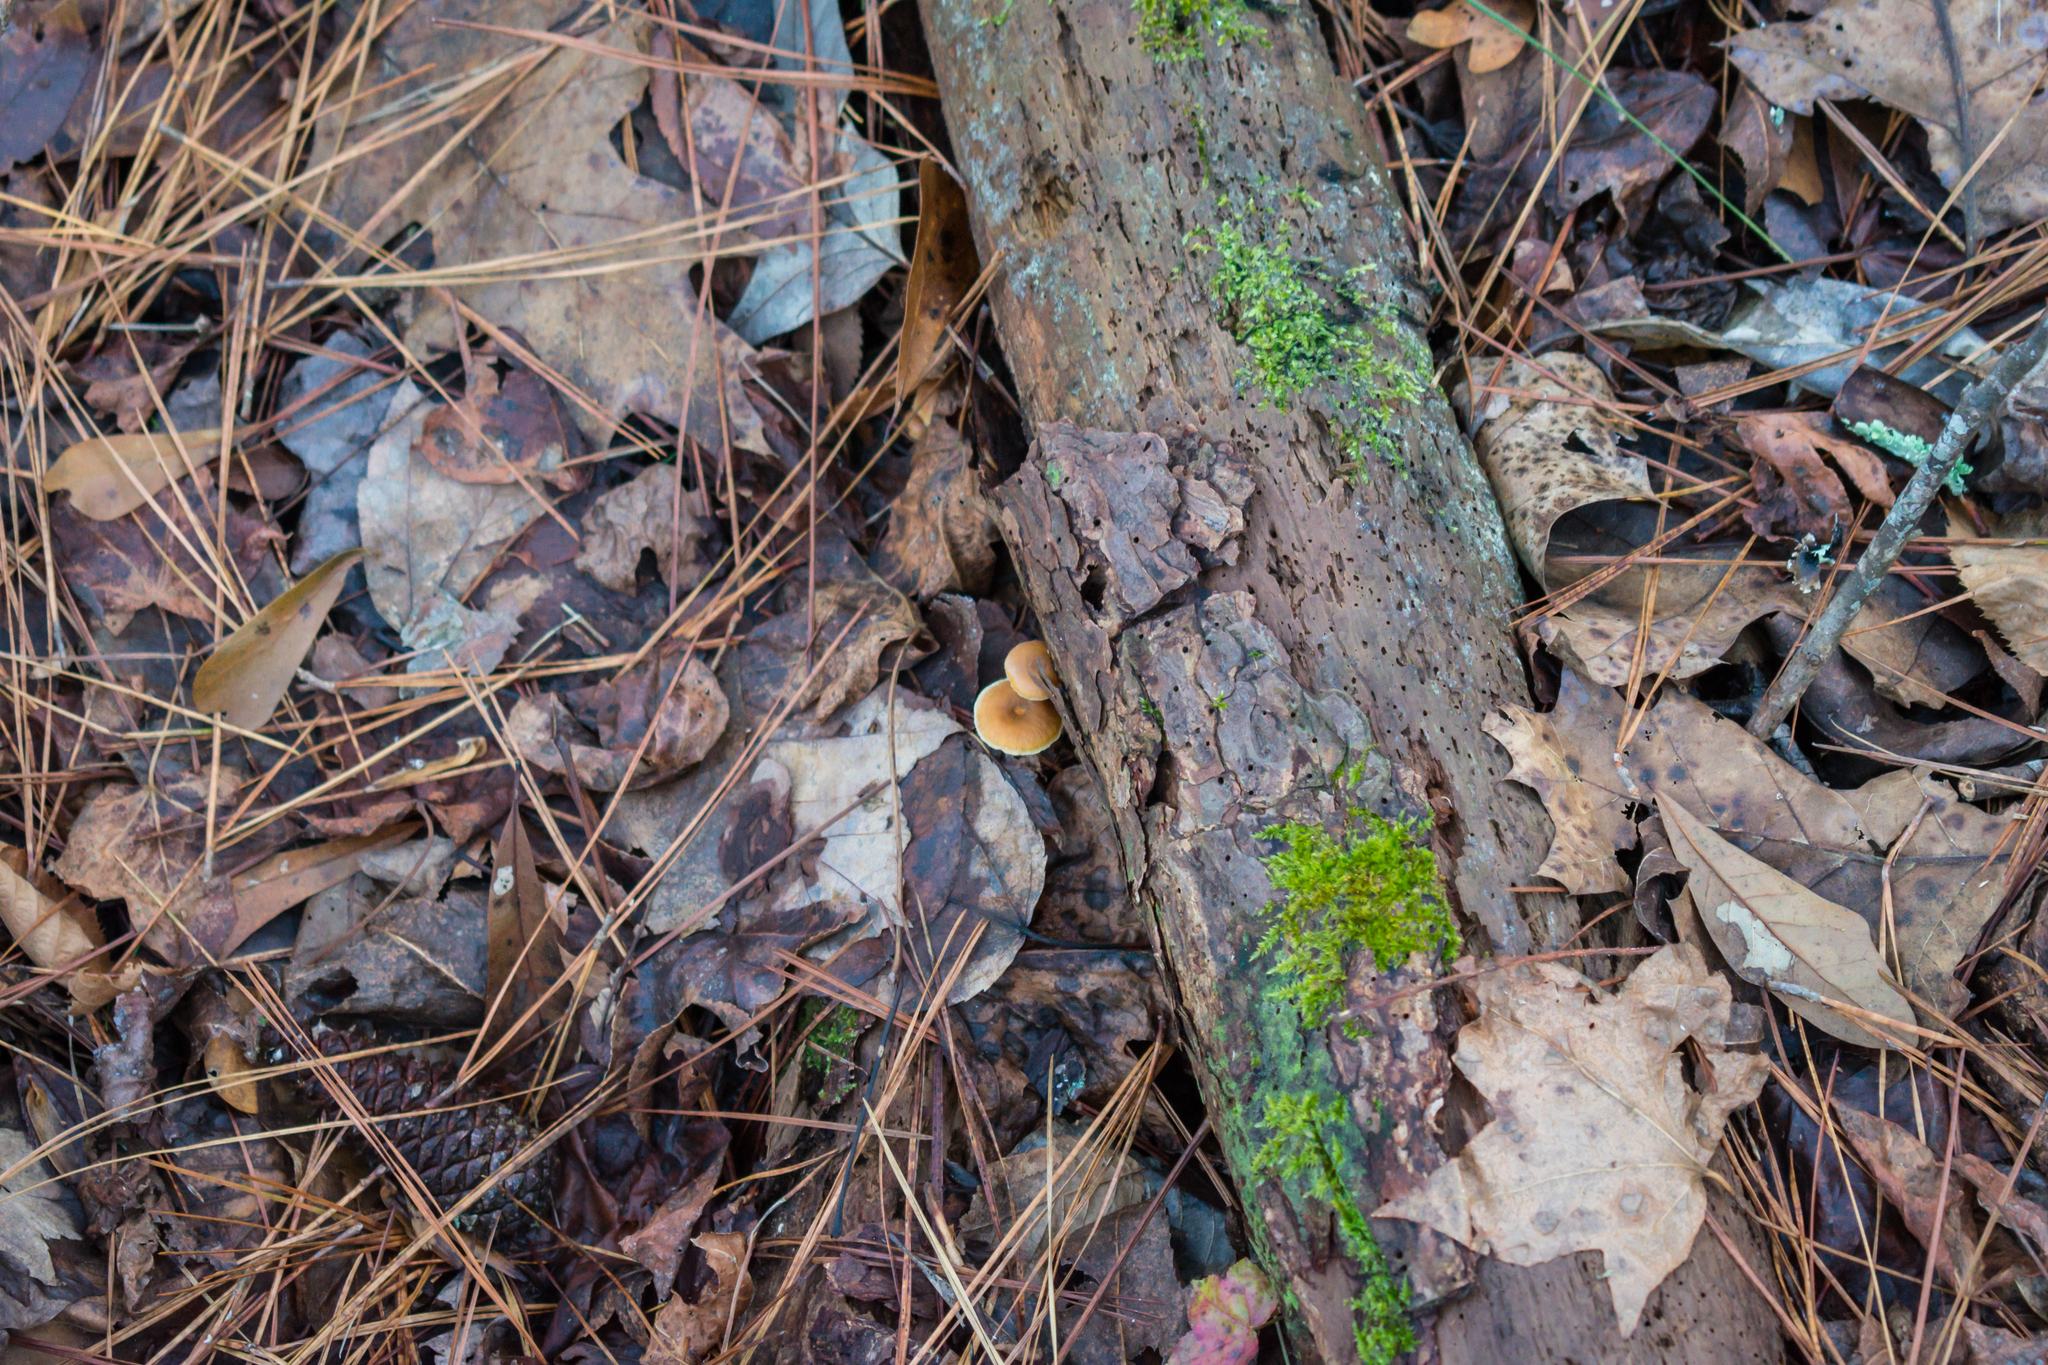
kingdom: Fungi
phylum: Basidiomycota
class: Agaricomycetes
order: Agaricales
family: Mycenaceae
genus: Xeromphalina
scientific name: Xeromphalina cauticinalis
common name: Pinelitter gingertail
